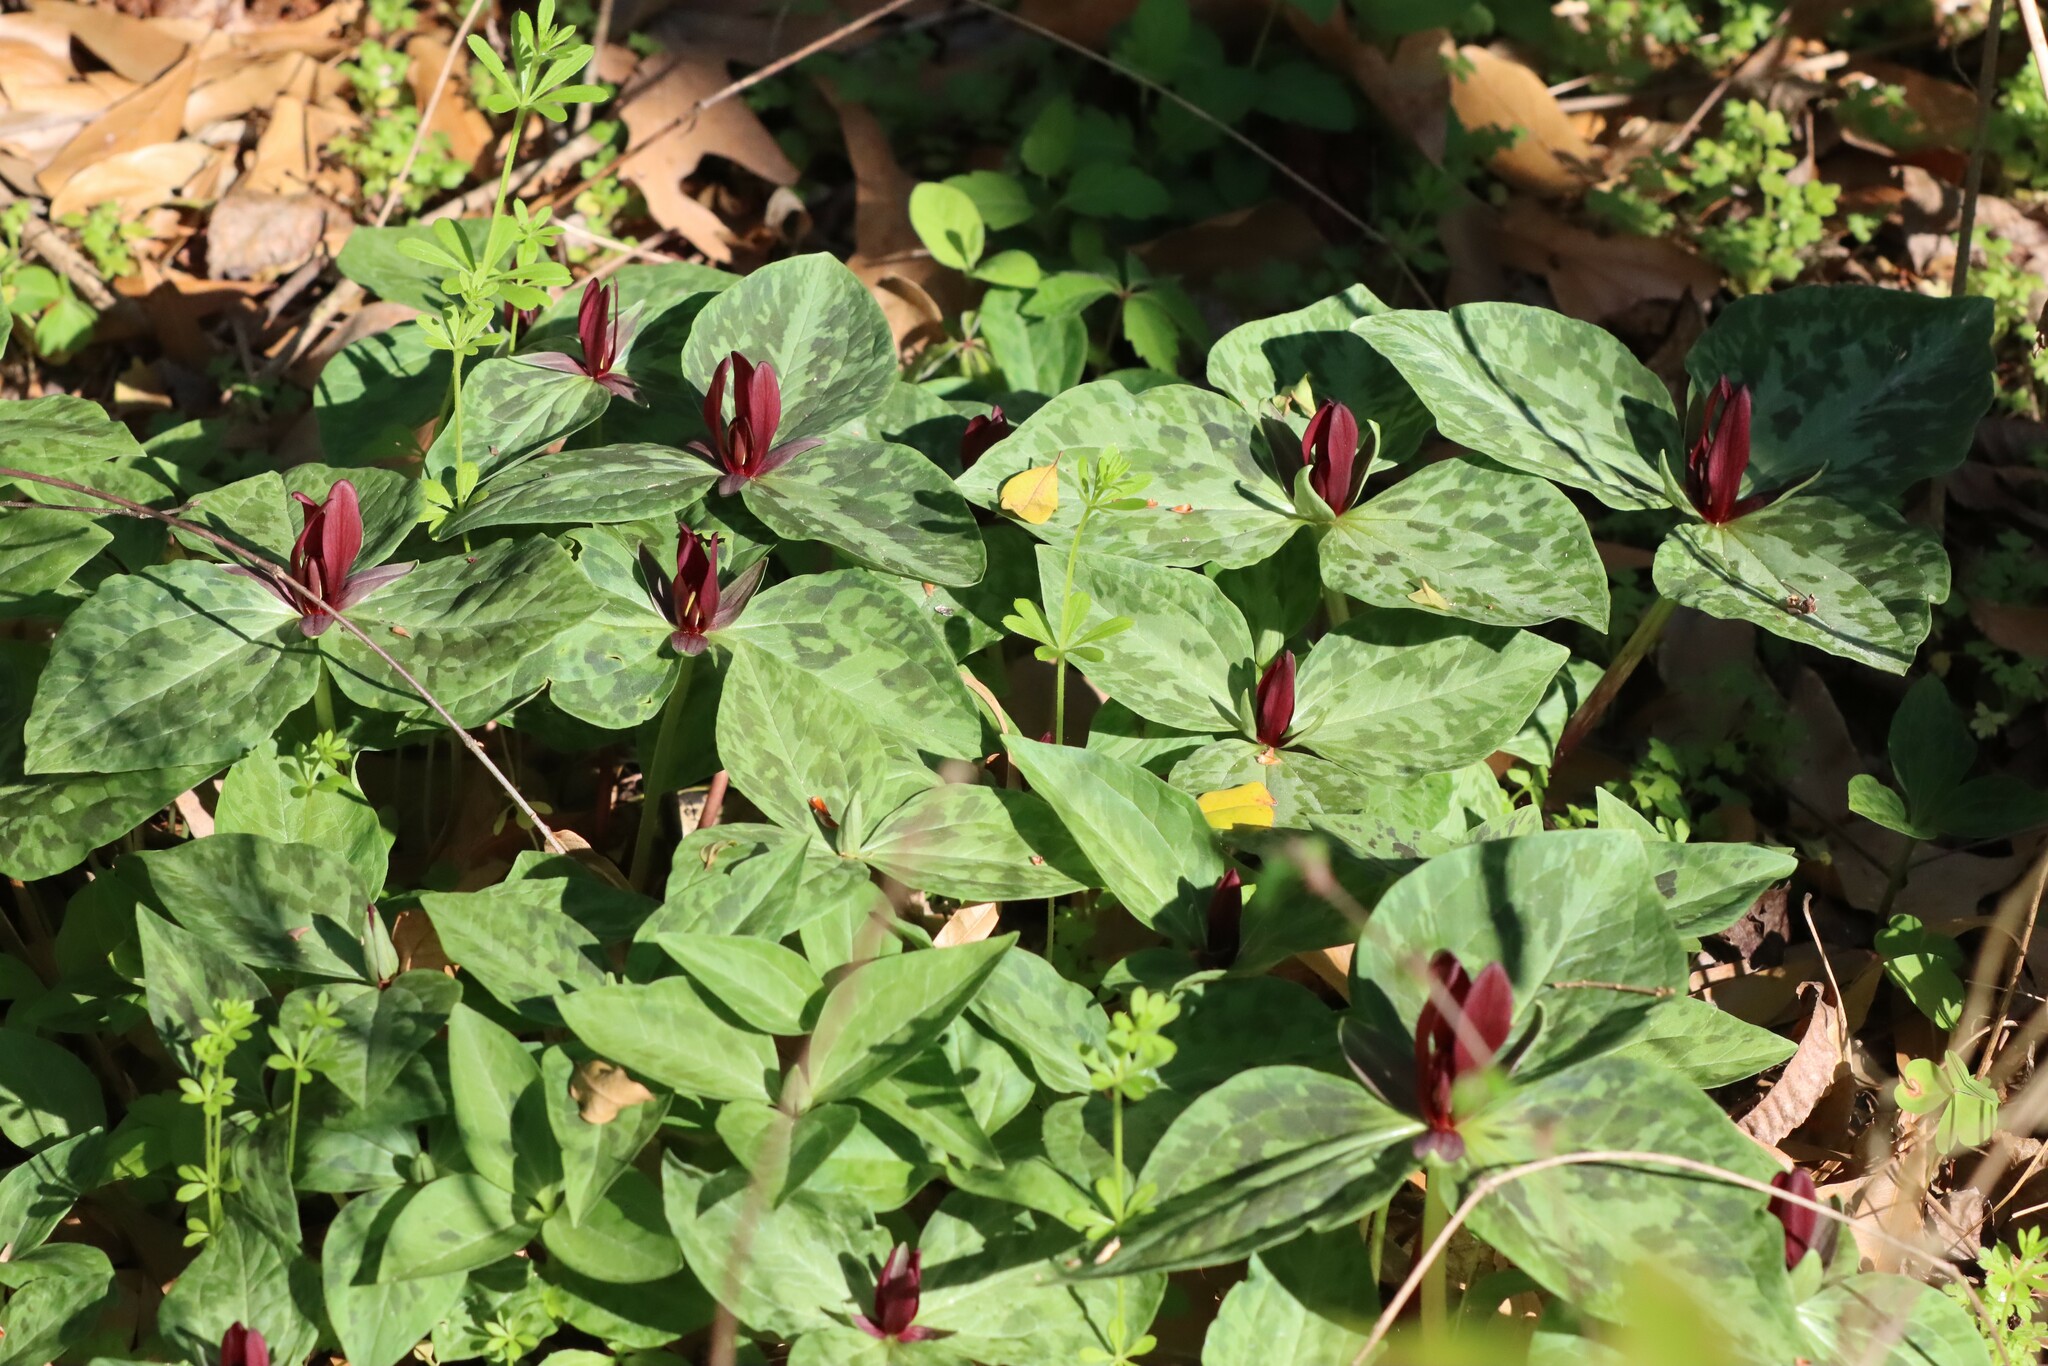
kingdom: Plantae
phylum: Tracheophyta
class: Liliopsida
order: Liliales
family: Melanthiaceae
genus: Trillium
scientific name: Trillium foetidissimum
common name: Mississippi river trillium
